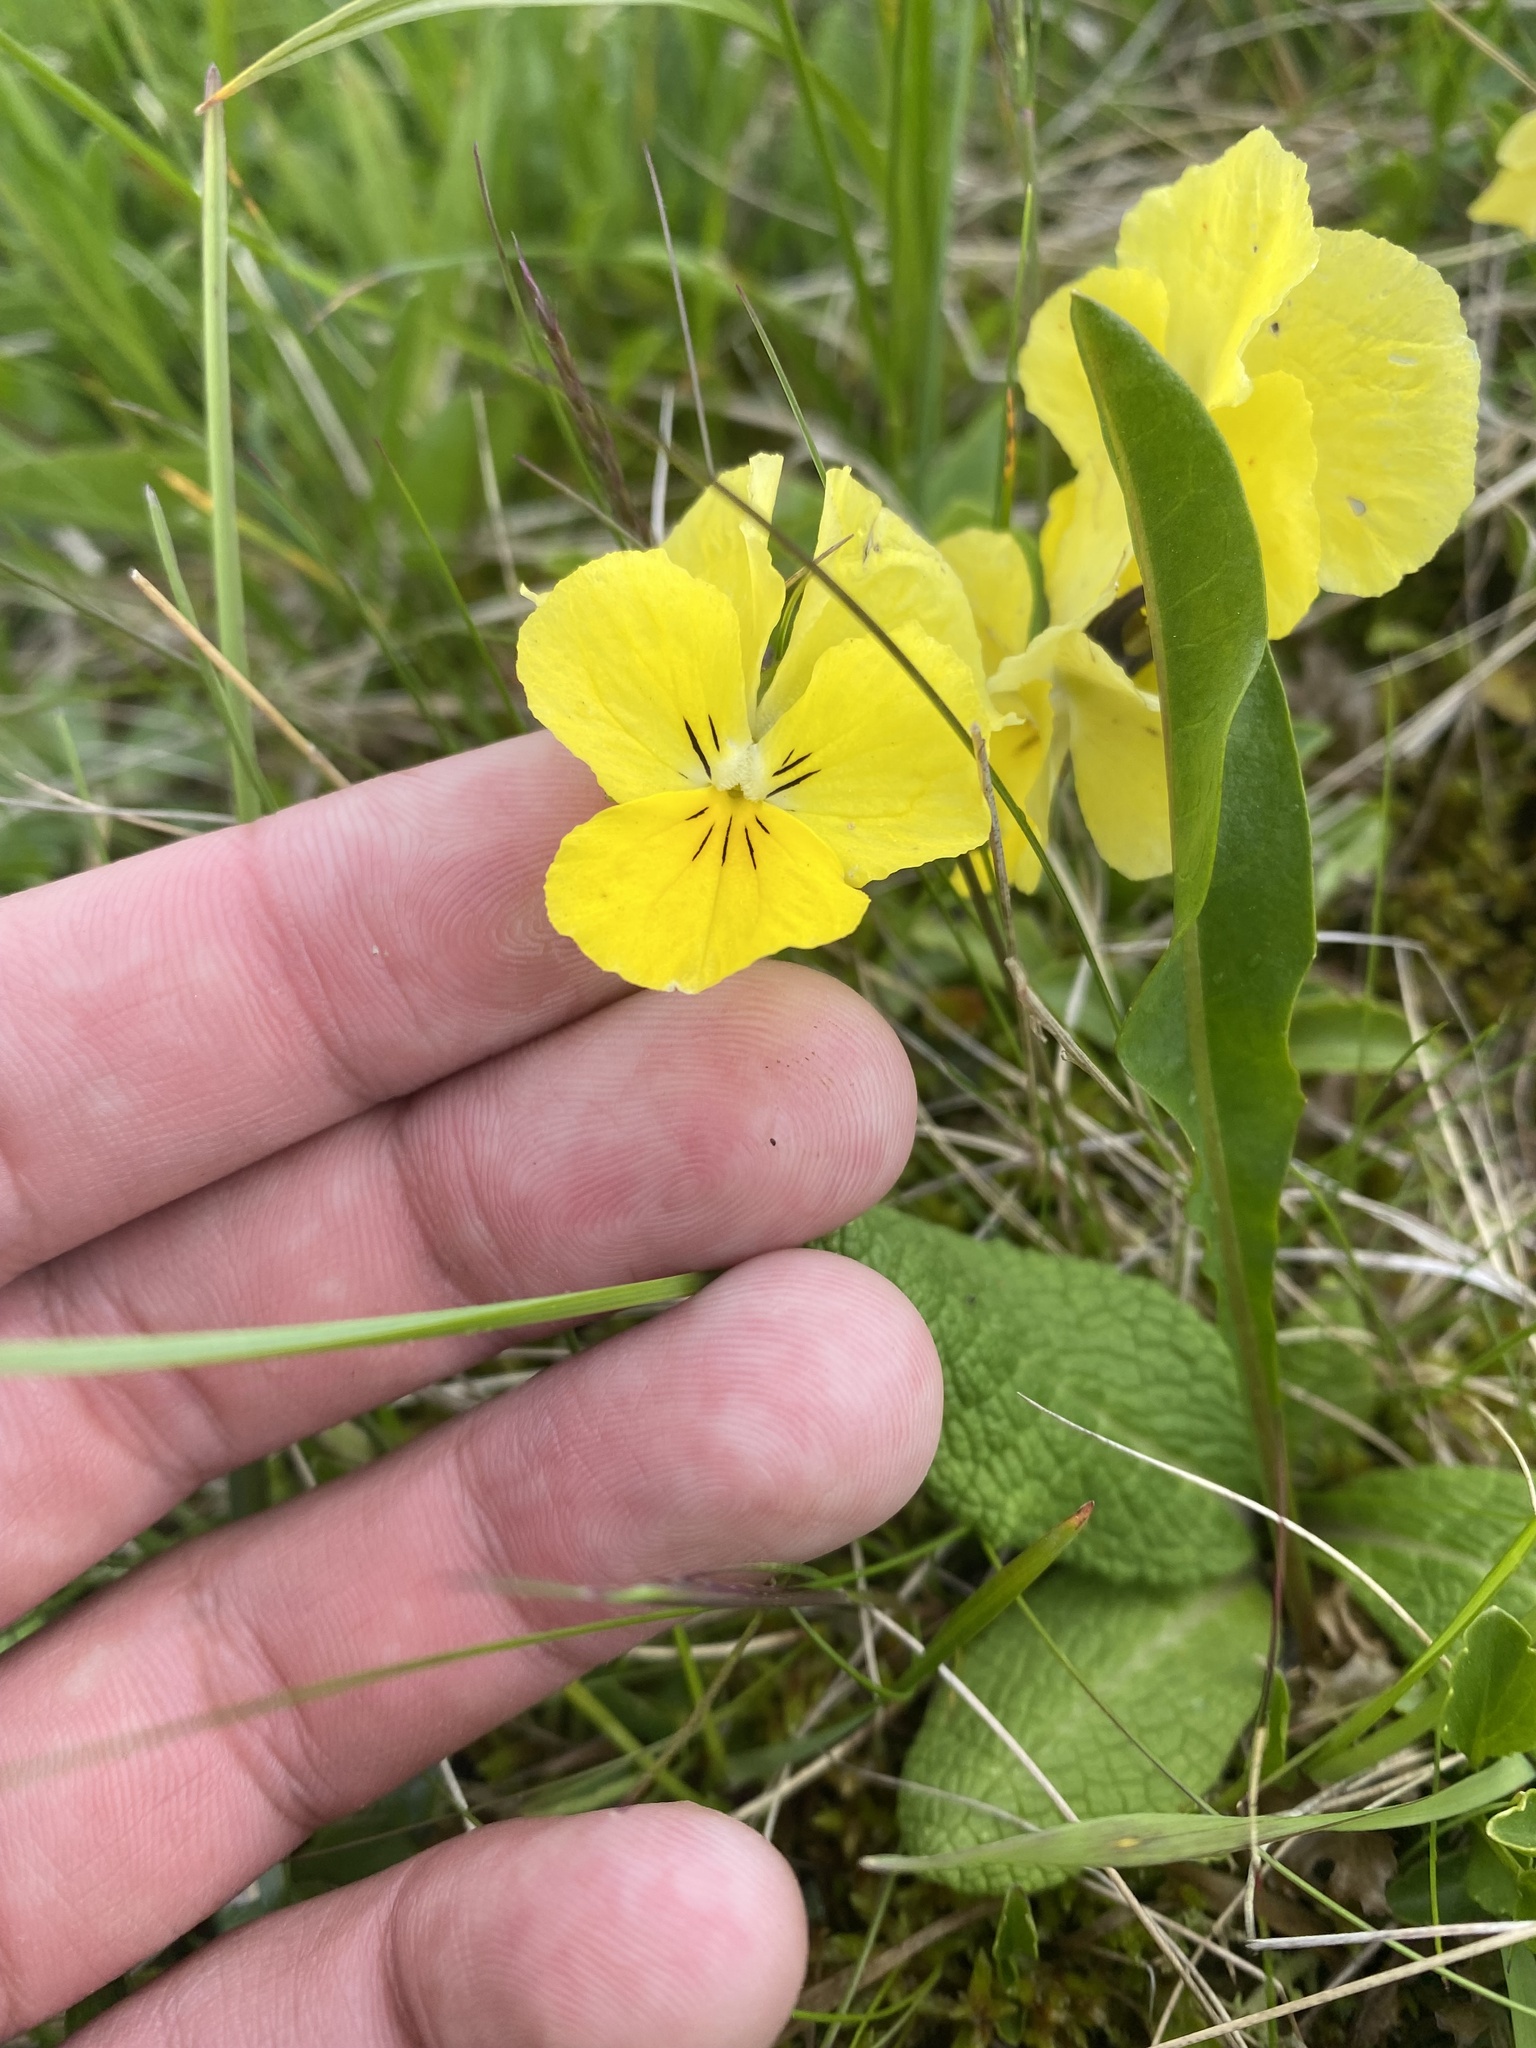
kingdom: Plantae
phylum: Tracheophyta
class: Magnoliopsida
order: Malpighiales
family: Violaceae
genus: Viola
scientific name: Viola oreades
